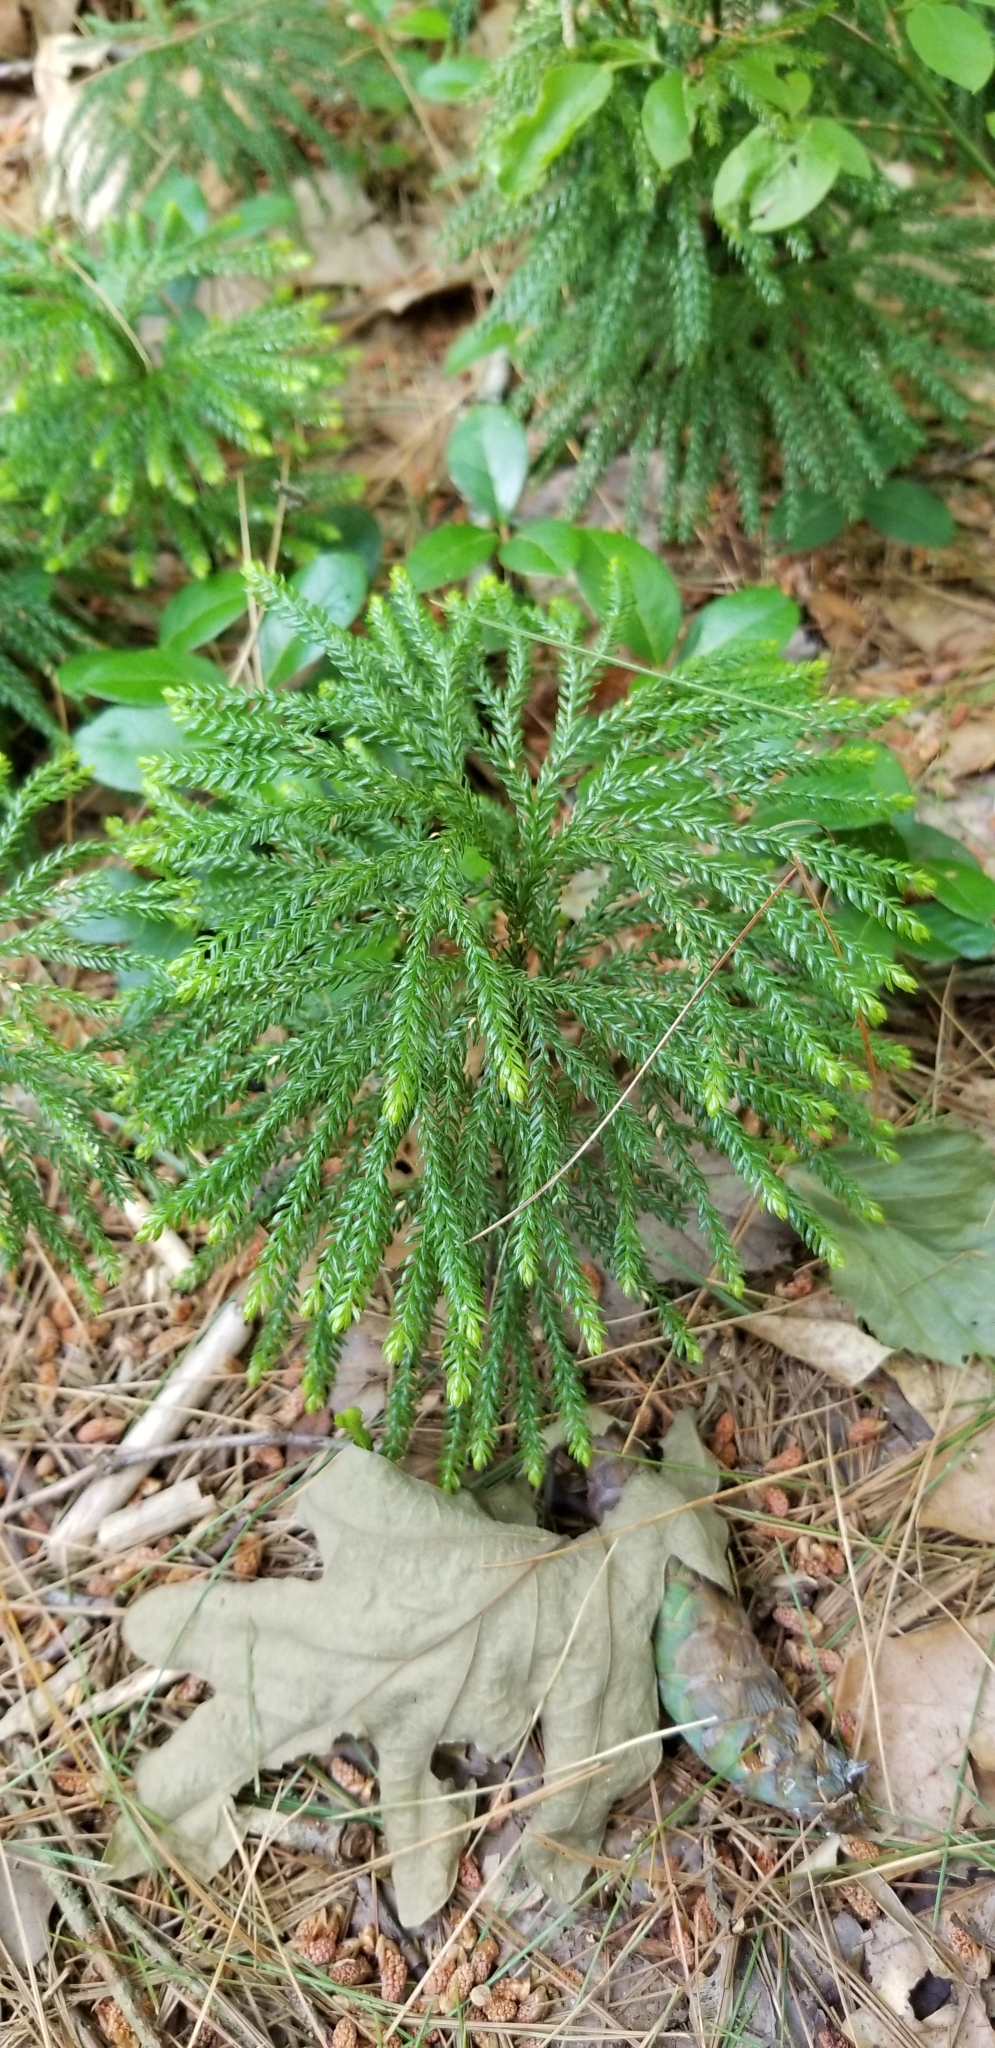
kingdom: Plantae
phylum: Tracheophyta
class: Lycopodiopsida
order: Lycopodiales
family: Lycopodiaceae
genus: Dendrolycopodium
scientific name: Dendrolycopodium obscurum
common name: Common ground-pine
